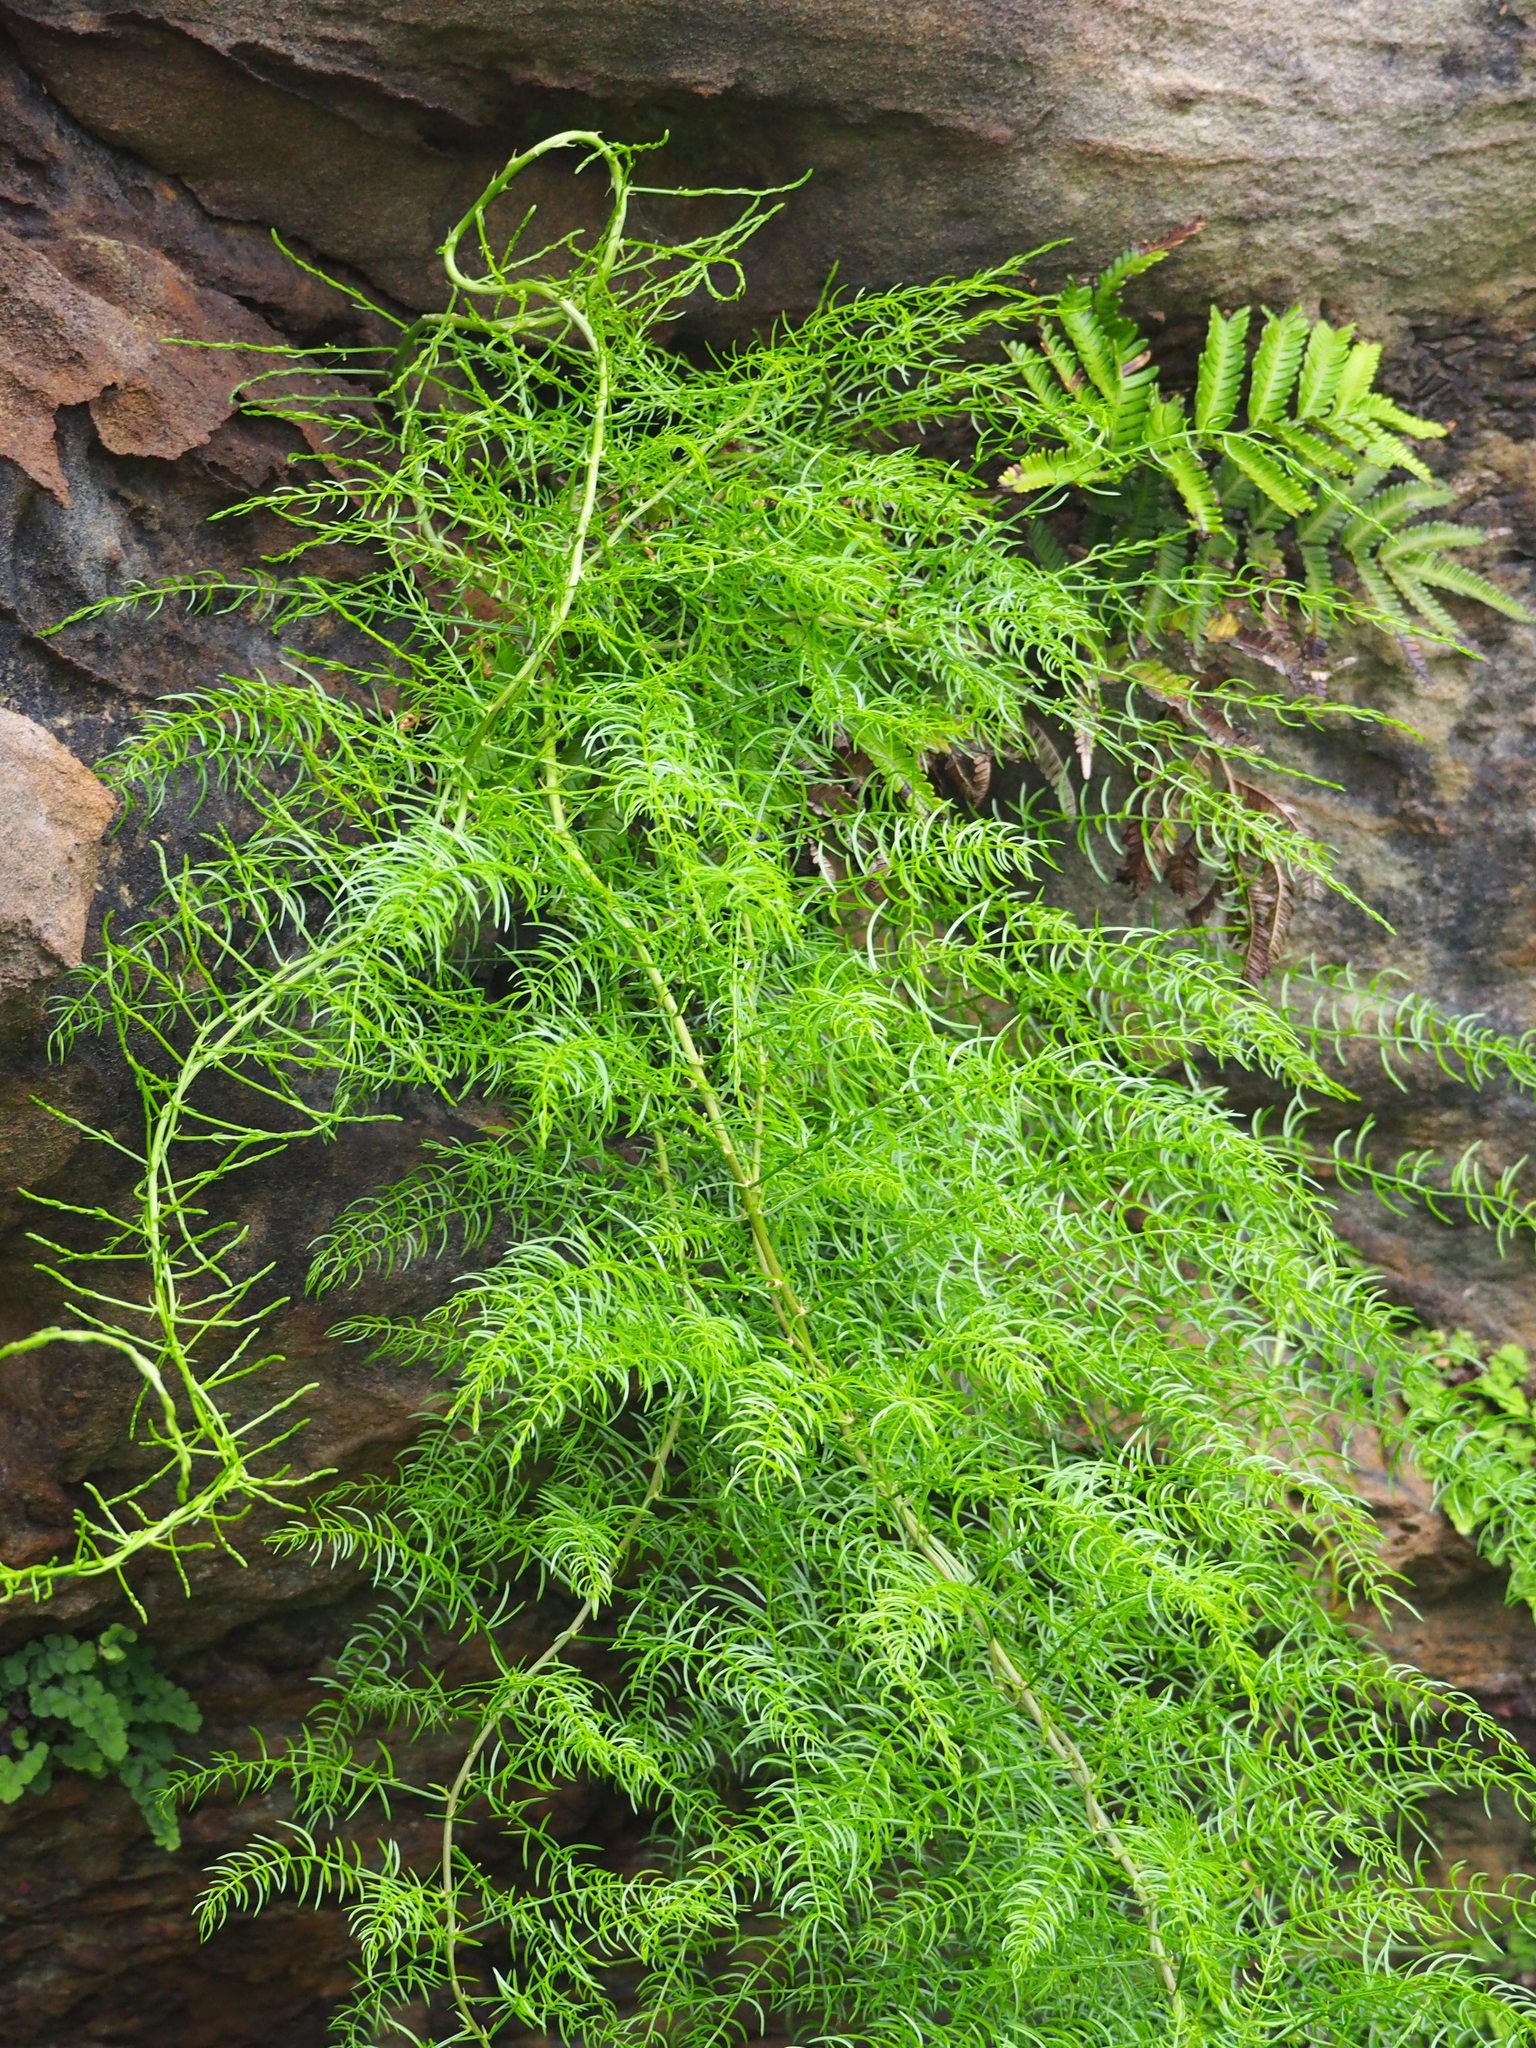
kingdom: Plantae
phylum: Tracheophyta
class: Liliopsida
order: Asparagales
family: Asparagaceae
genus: Asparagus
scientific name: Asparagus cochinchinensis
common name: Chinese asparagus
